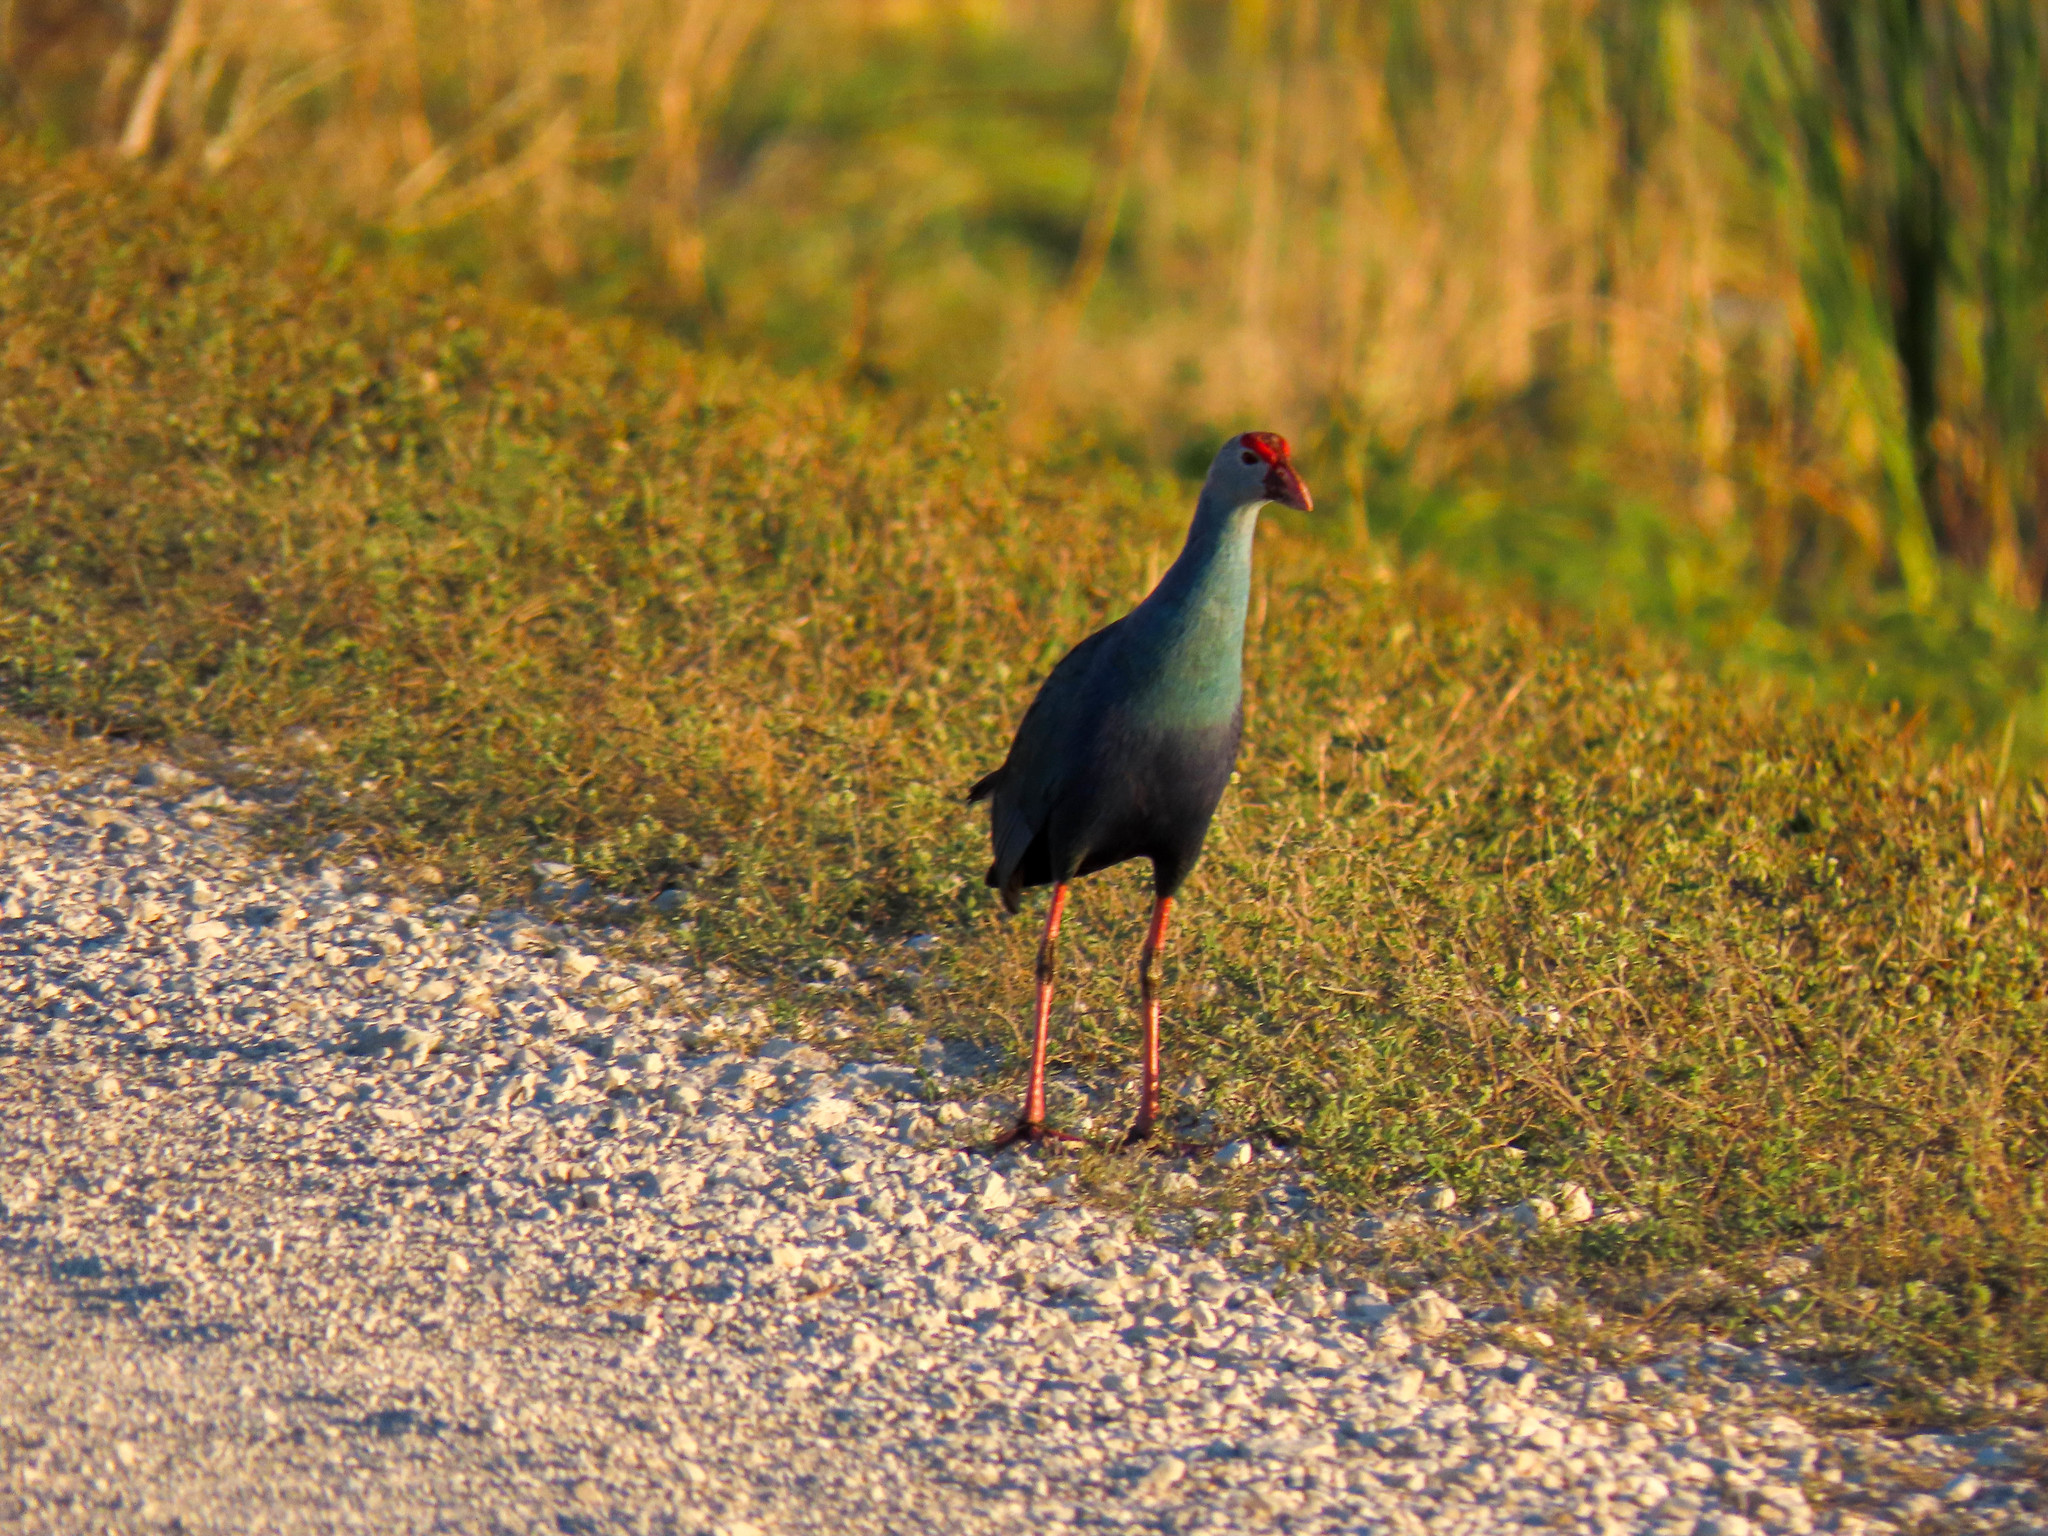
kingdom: Animalia
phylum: Chordata
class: Aves
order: Gruiformes
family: Rallidae
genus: Porphyrio
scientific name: Porphyrio porphyrio
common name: Purple swamphen
